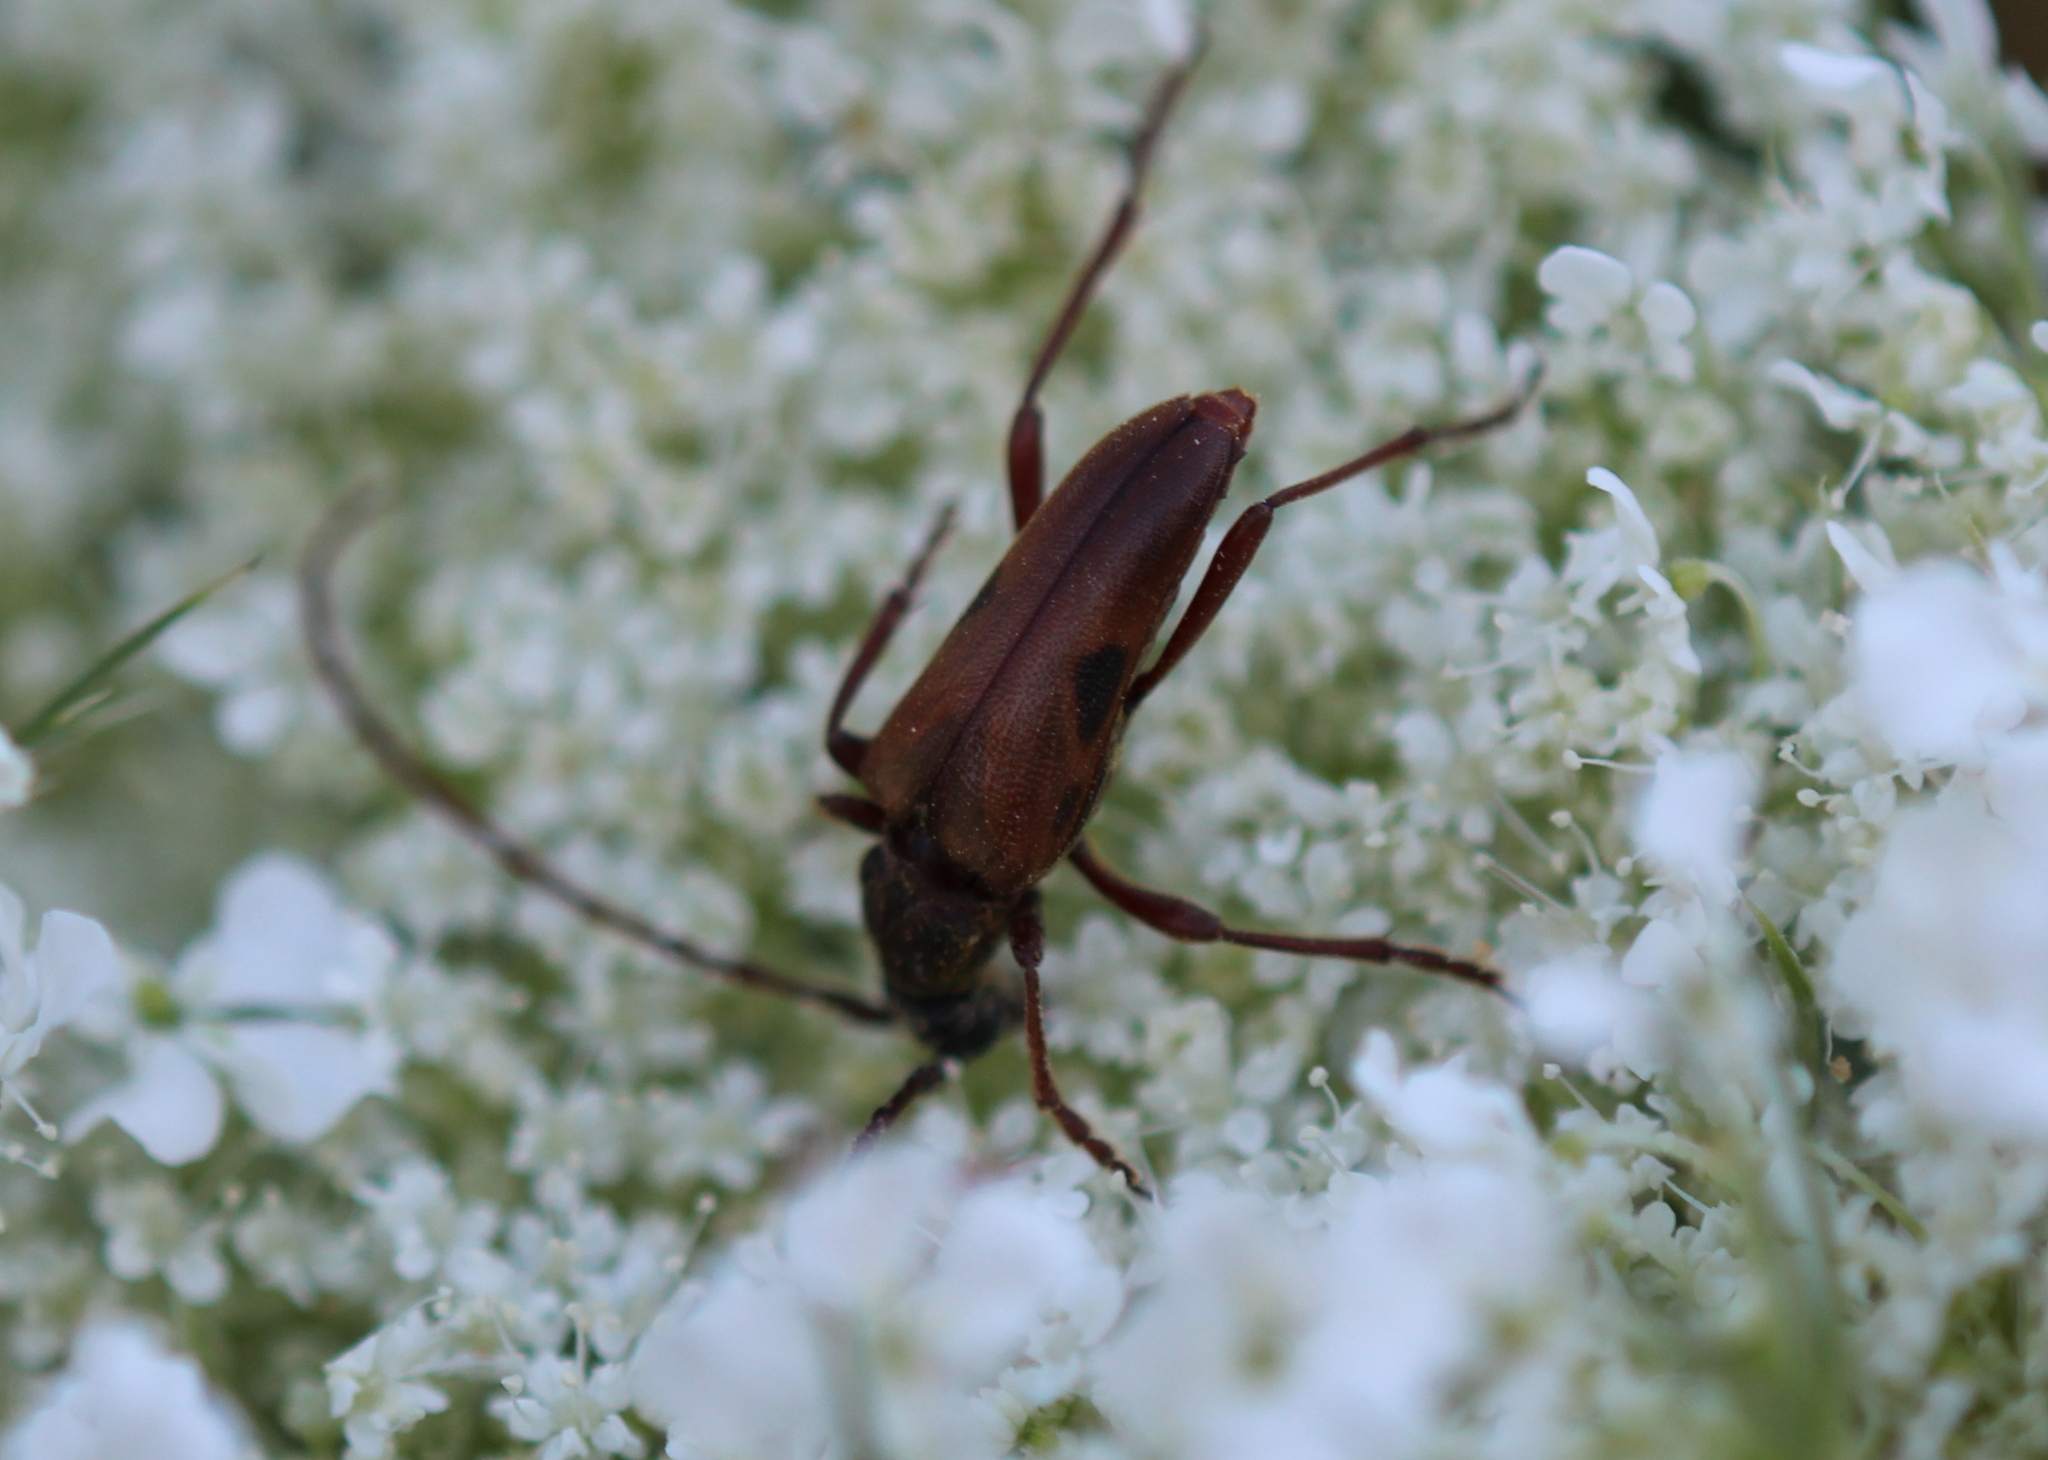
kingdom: Animalia
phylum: Arthropoda
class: Insecta
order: Coleoptera
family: Cerambycidae
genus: Lepturopsis
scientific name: Lepturopsis biforis
